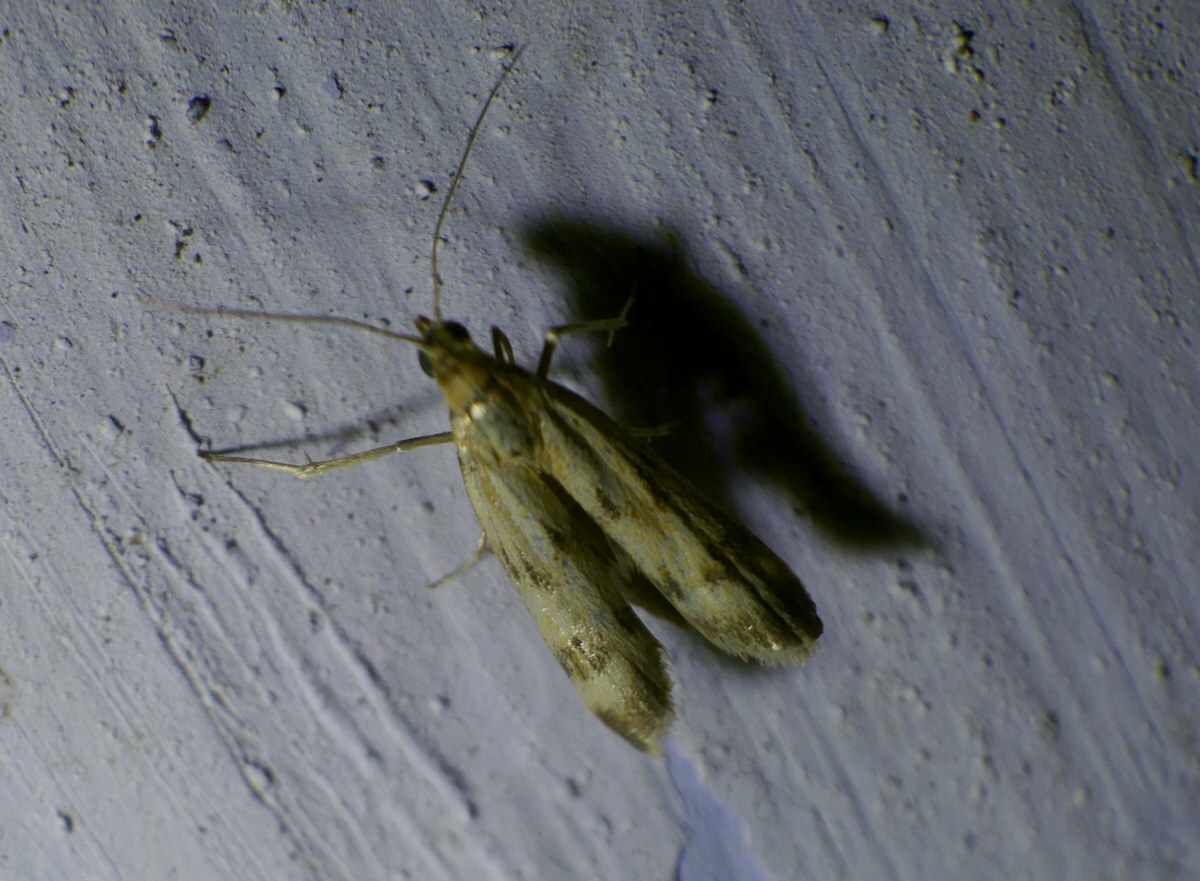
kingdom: Animalia
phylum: Arthropoda
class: Insecta
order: Lepidoptera
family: Pyralidae
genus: Homoeosoma
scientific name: Homoeosoma sinuella
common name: Twin-barred knot-horn
